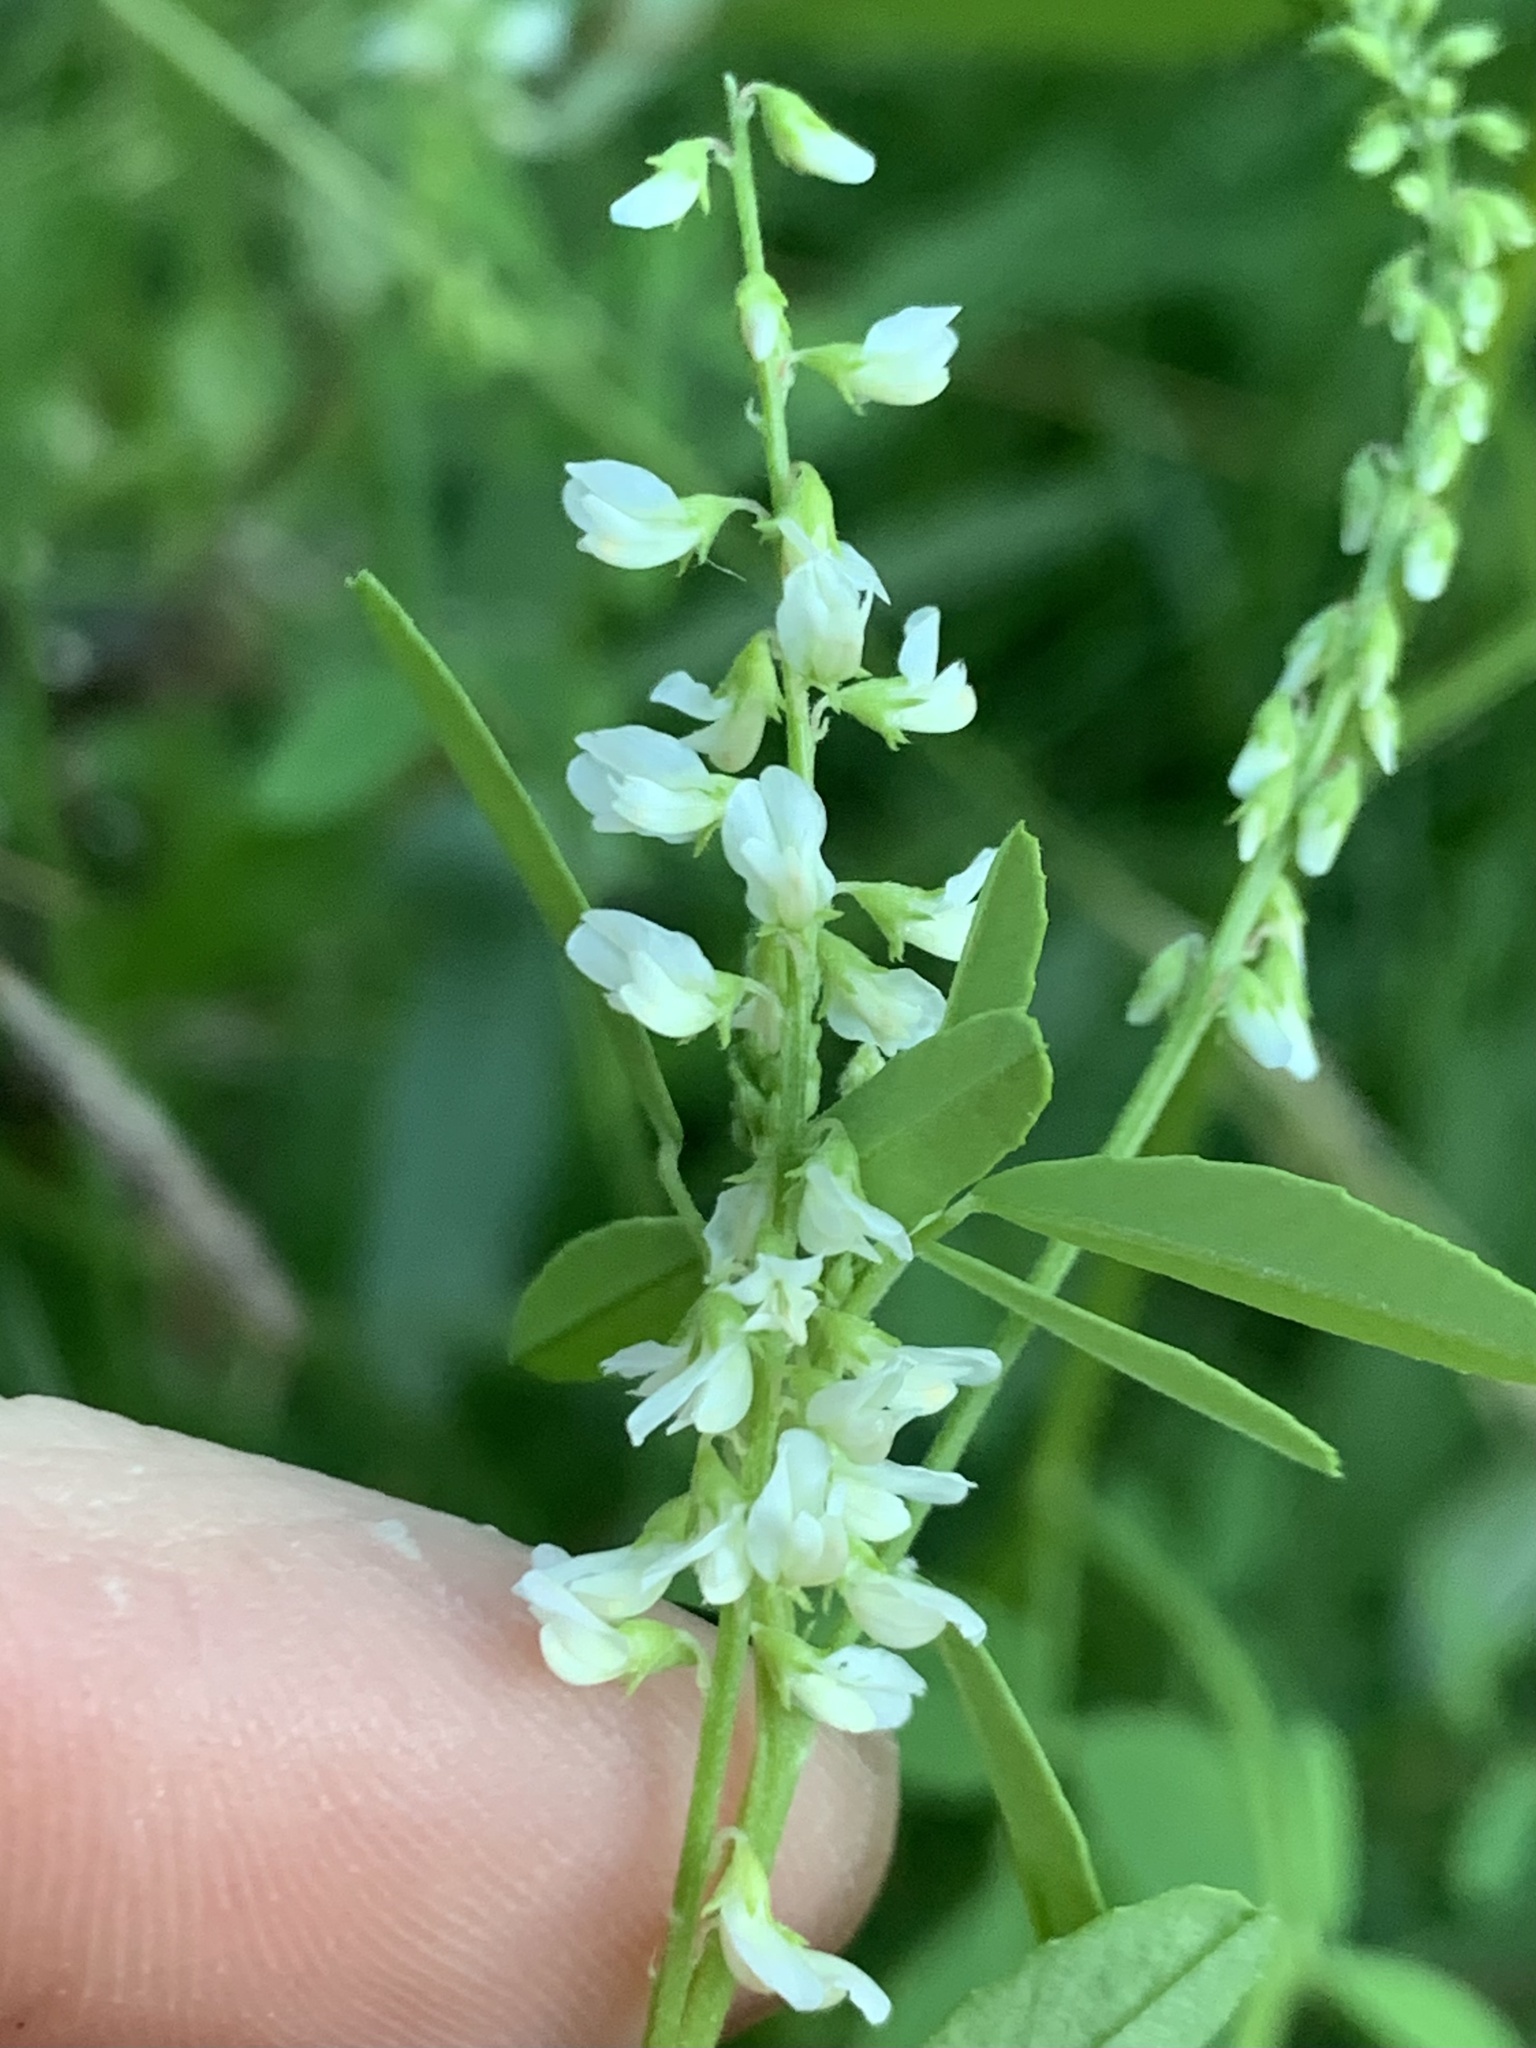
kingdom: Plantae
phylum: Tracheophyta
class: Magnoliopsida
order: Fabales
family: Fabaceae
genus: Melilotus
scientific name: Melilotus albus
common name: White melilot
